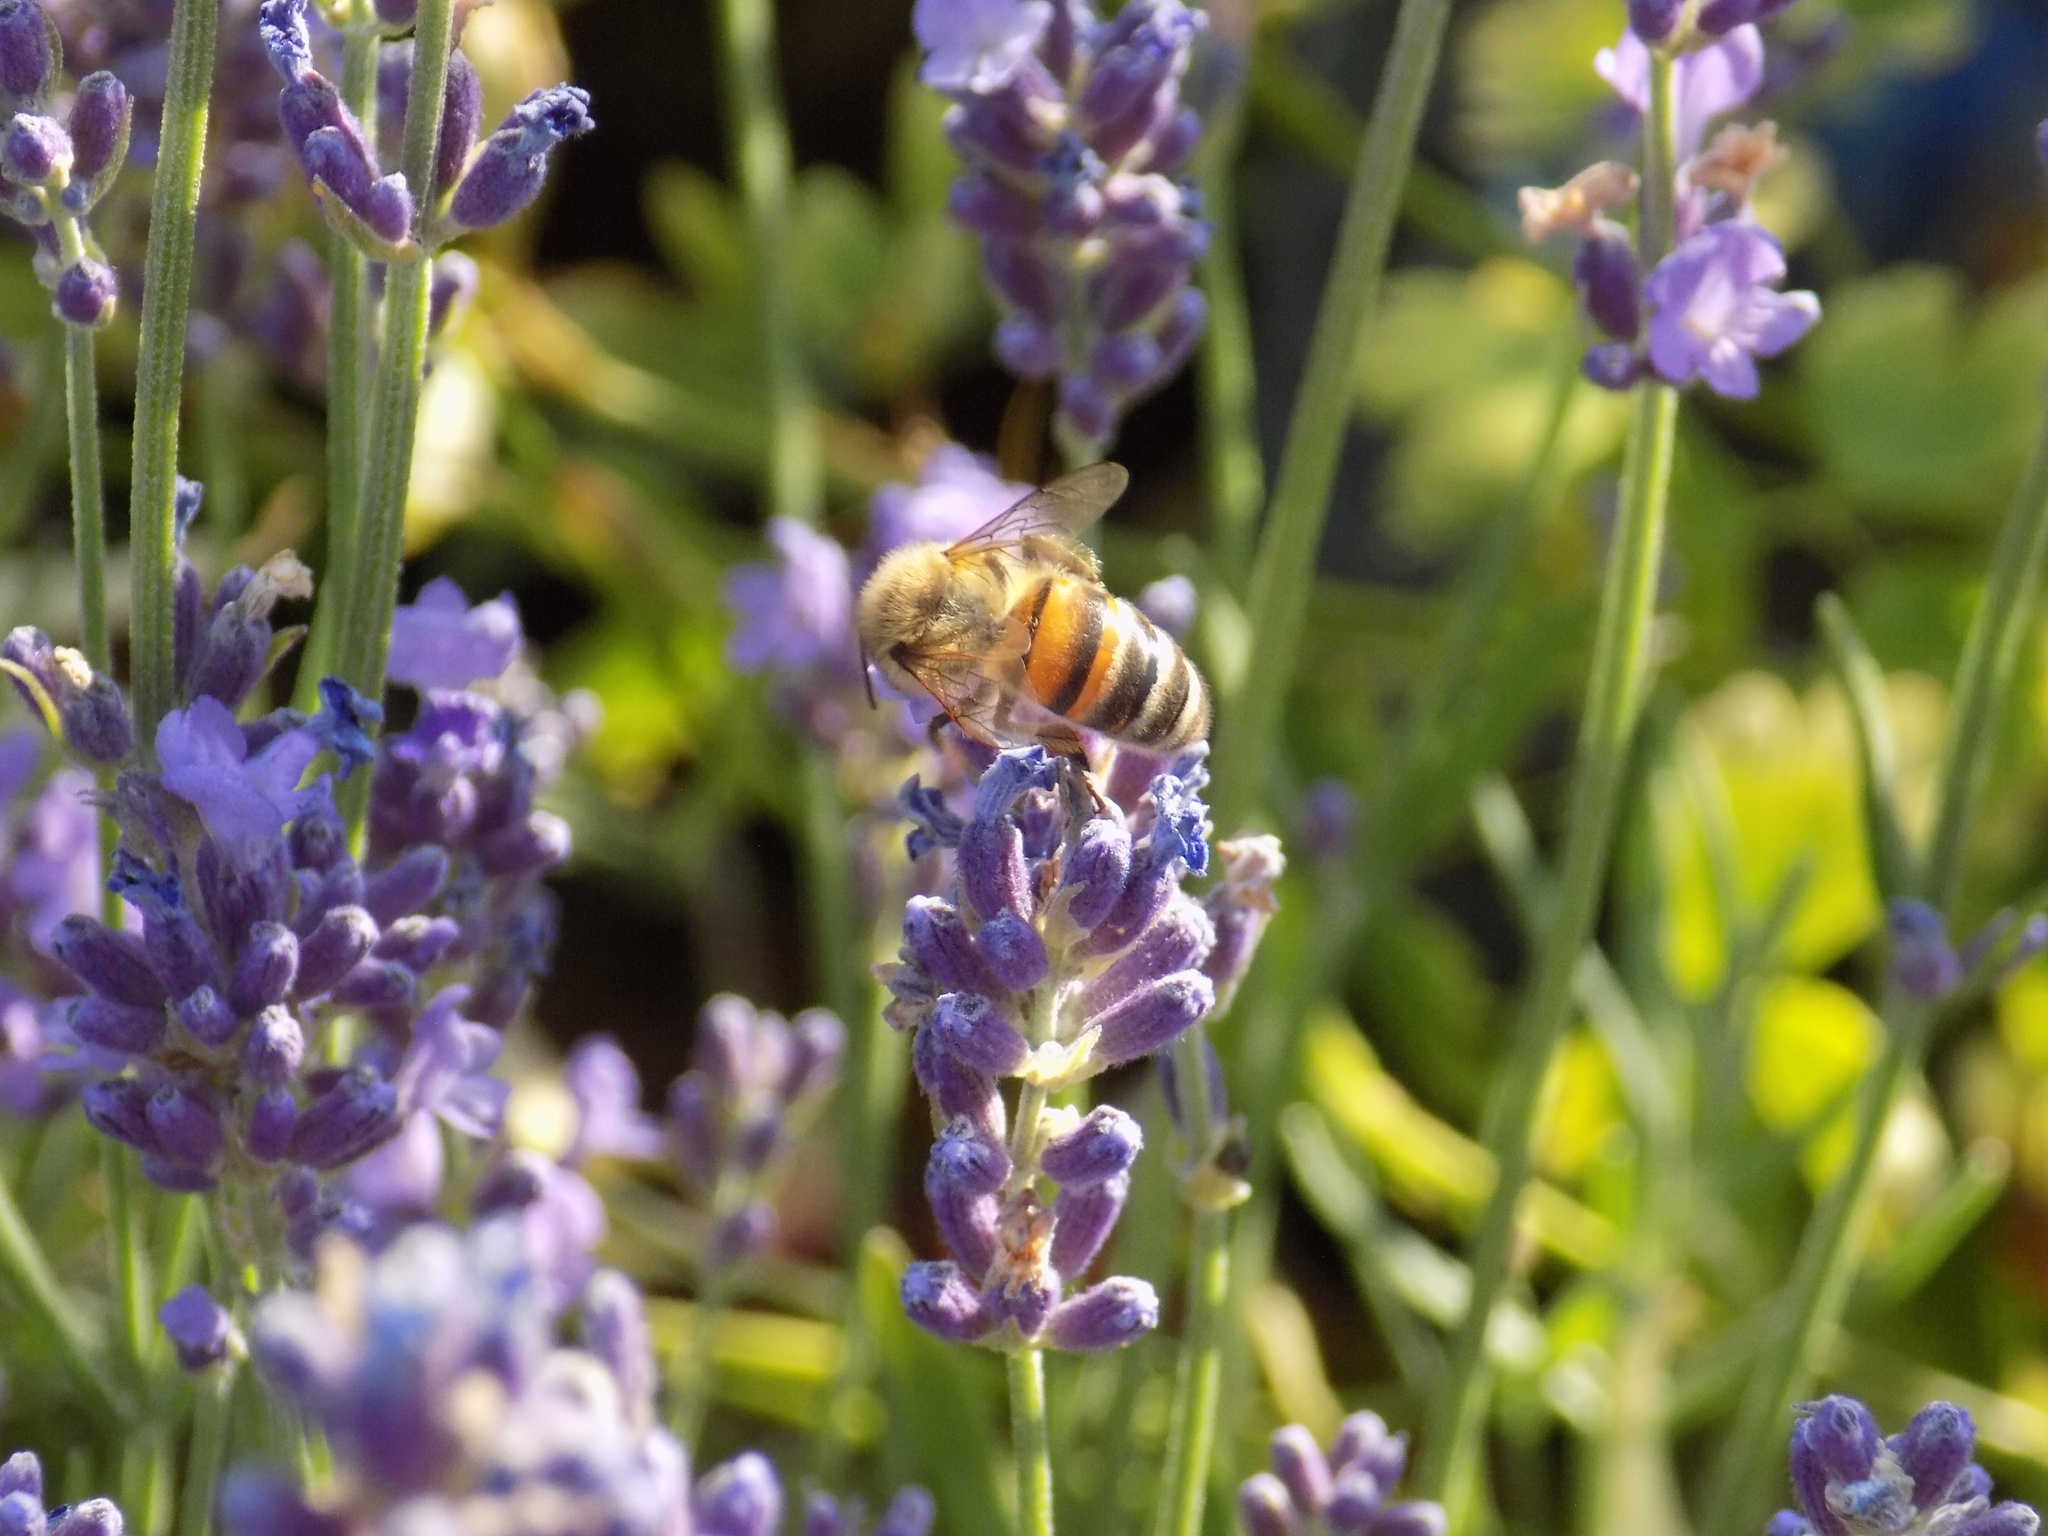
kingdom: Animalia
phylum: Arthropoda
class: Insecta
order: Hymenoptera
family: Apidae
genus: Apis
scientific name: Apis mellifera
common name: Honey bee
